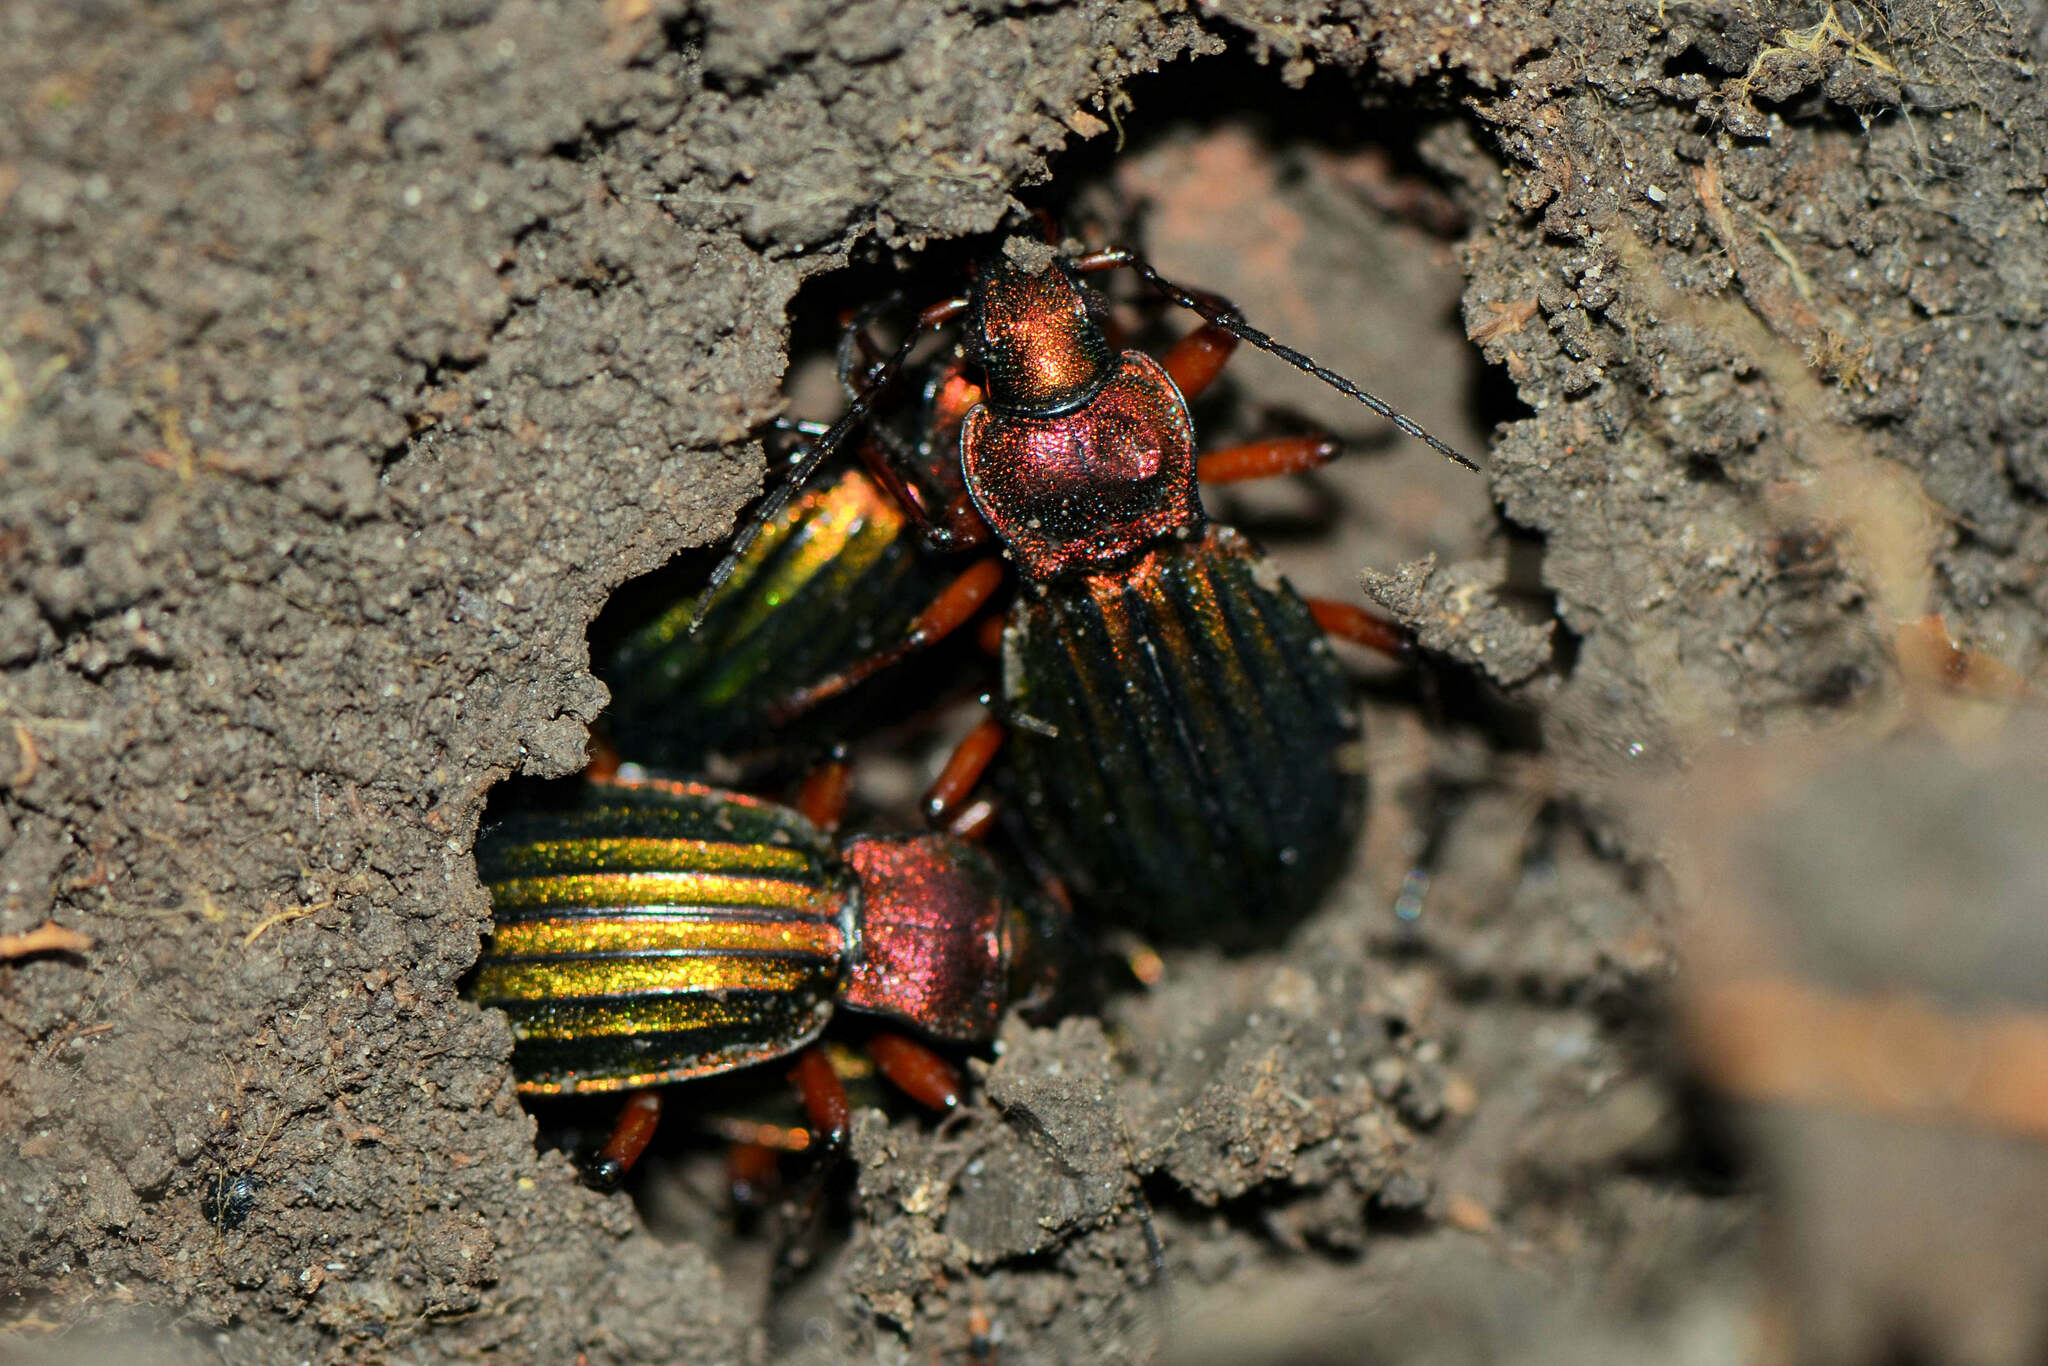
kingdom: Animalia
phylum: Arthropoda
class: Insecta
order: Coleoptera
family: Carabidae
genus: Carabus
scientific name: Carabus auronitens
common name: Carabus auronitens
